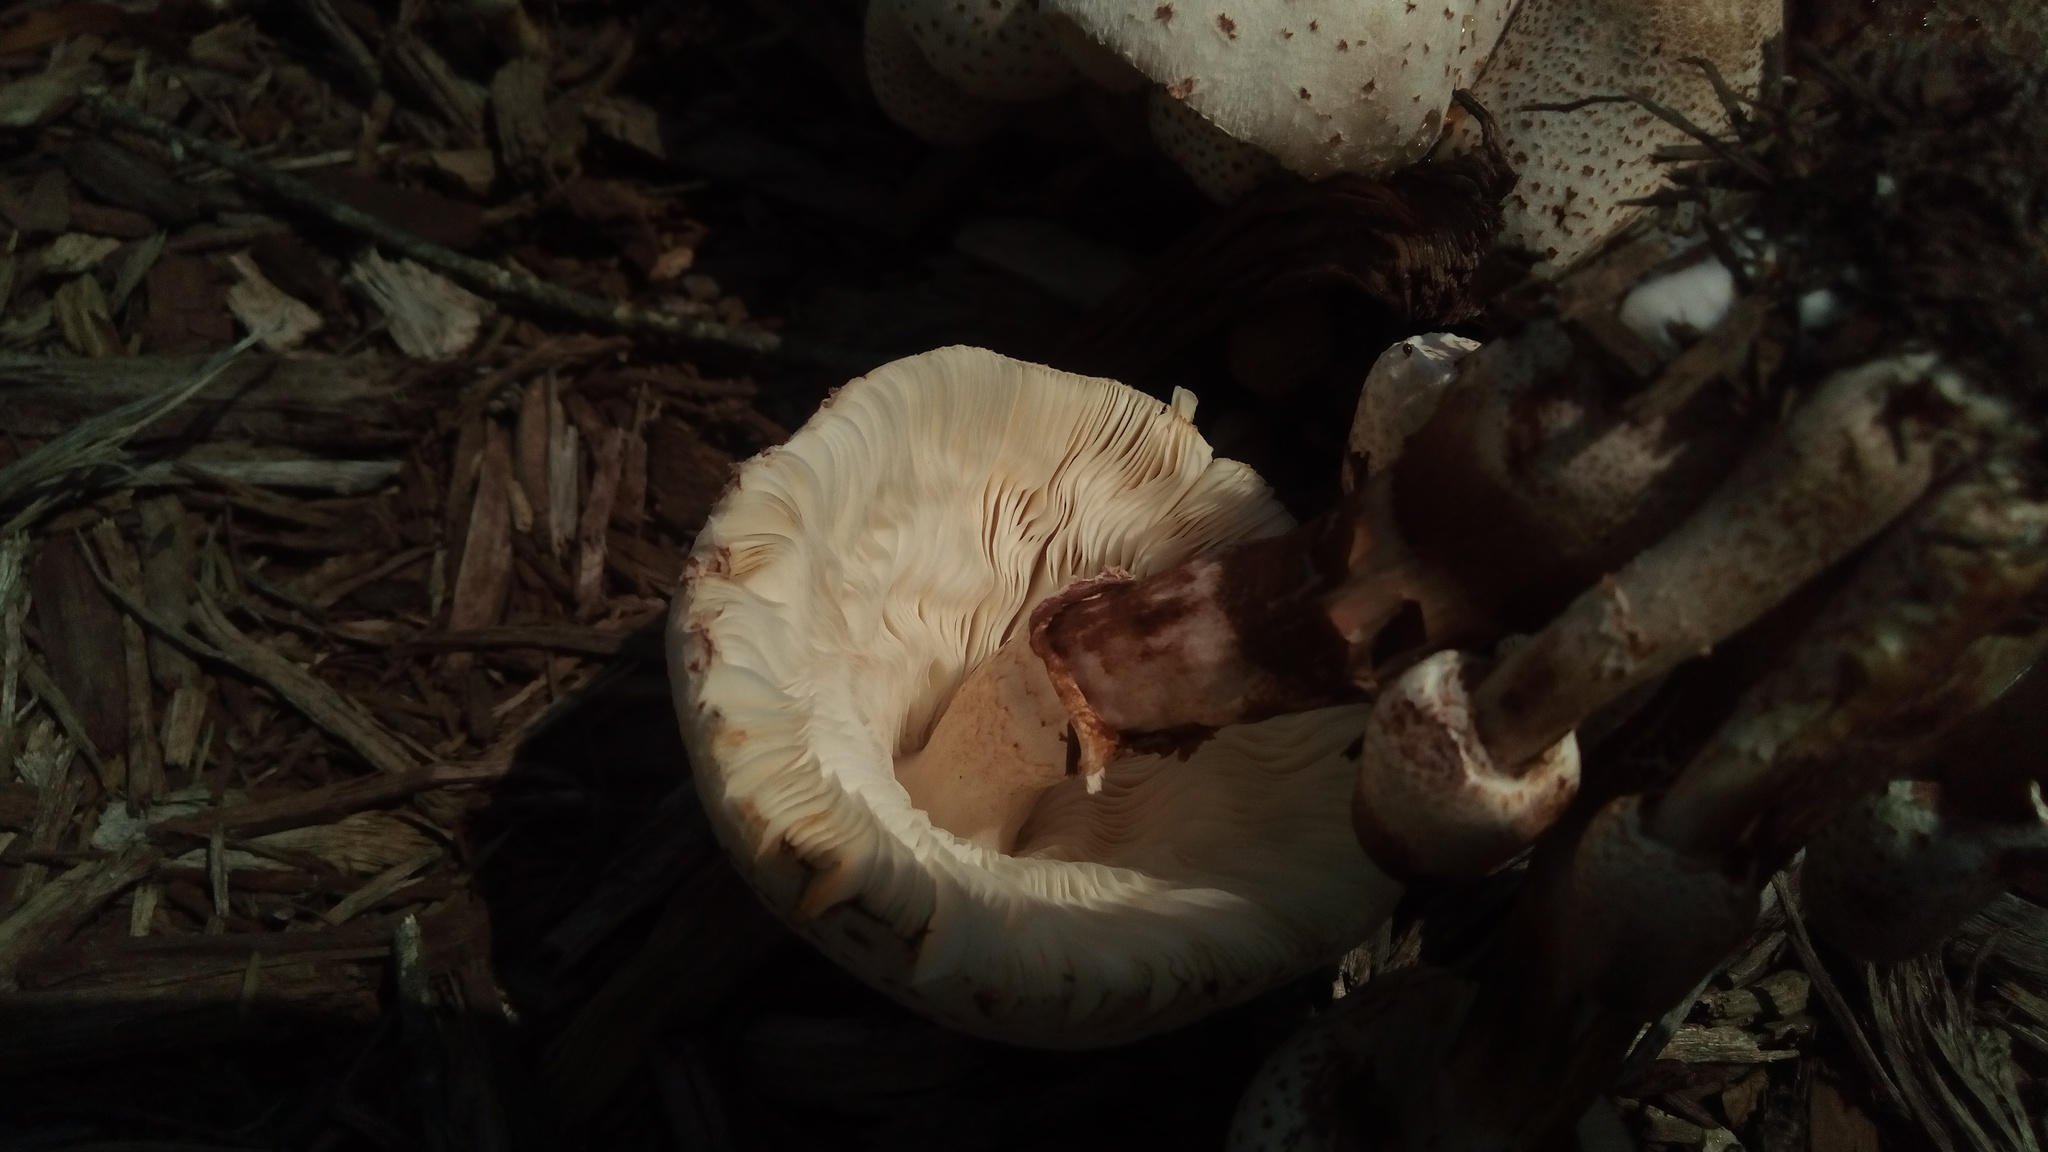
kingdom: Fungi
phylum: Basidiomycota
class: Agaricomycetes
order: Agaricales
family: Agaricaceae
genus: Leucoagaricus
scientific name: Leucoagaricus americanus
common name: Reddening lepiota
